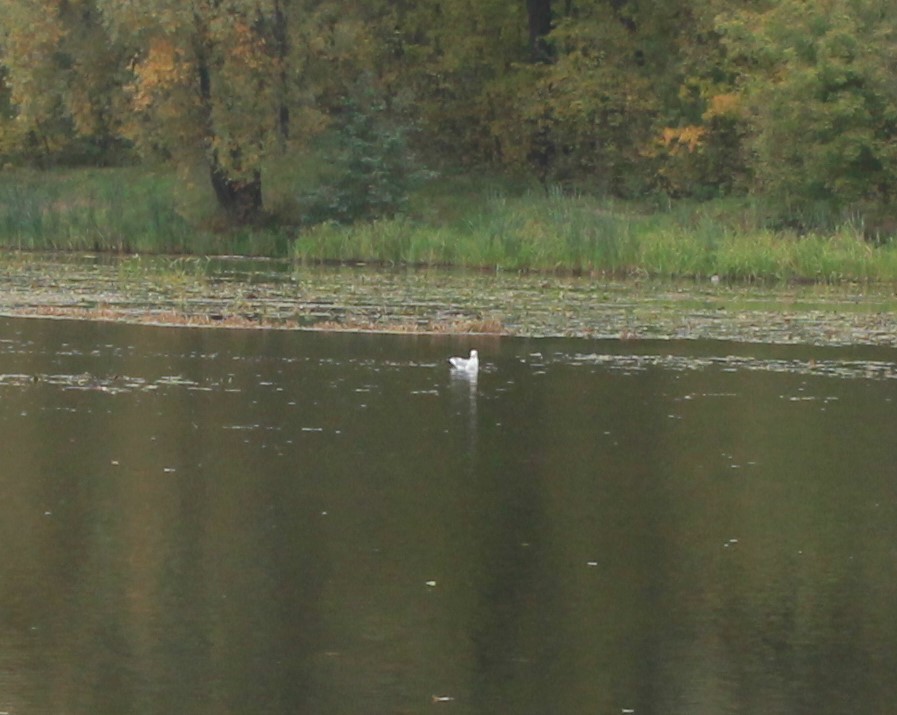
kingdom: Animalia
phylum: Chordata
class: Aves
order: Charadriiformes
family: Laridae
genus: Larus
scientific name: Larus
